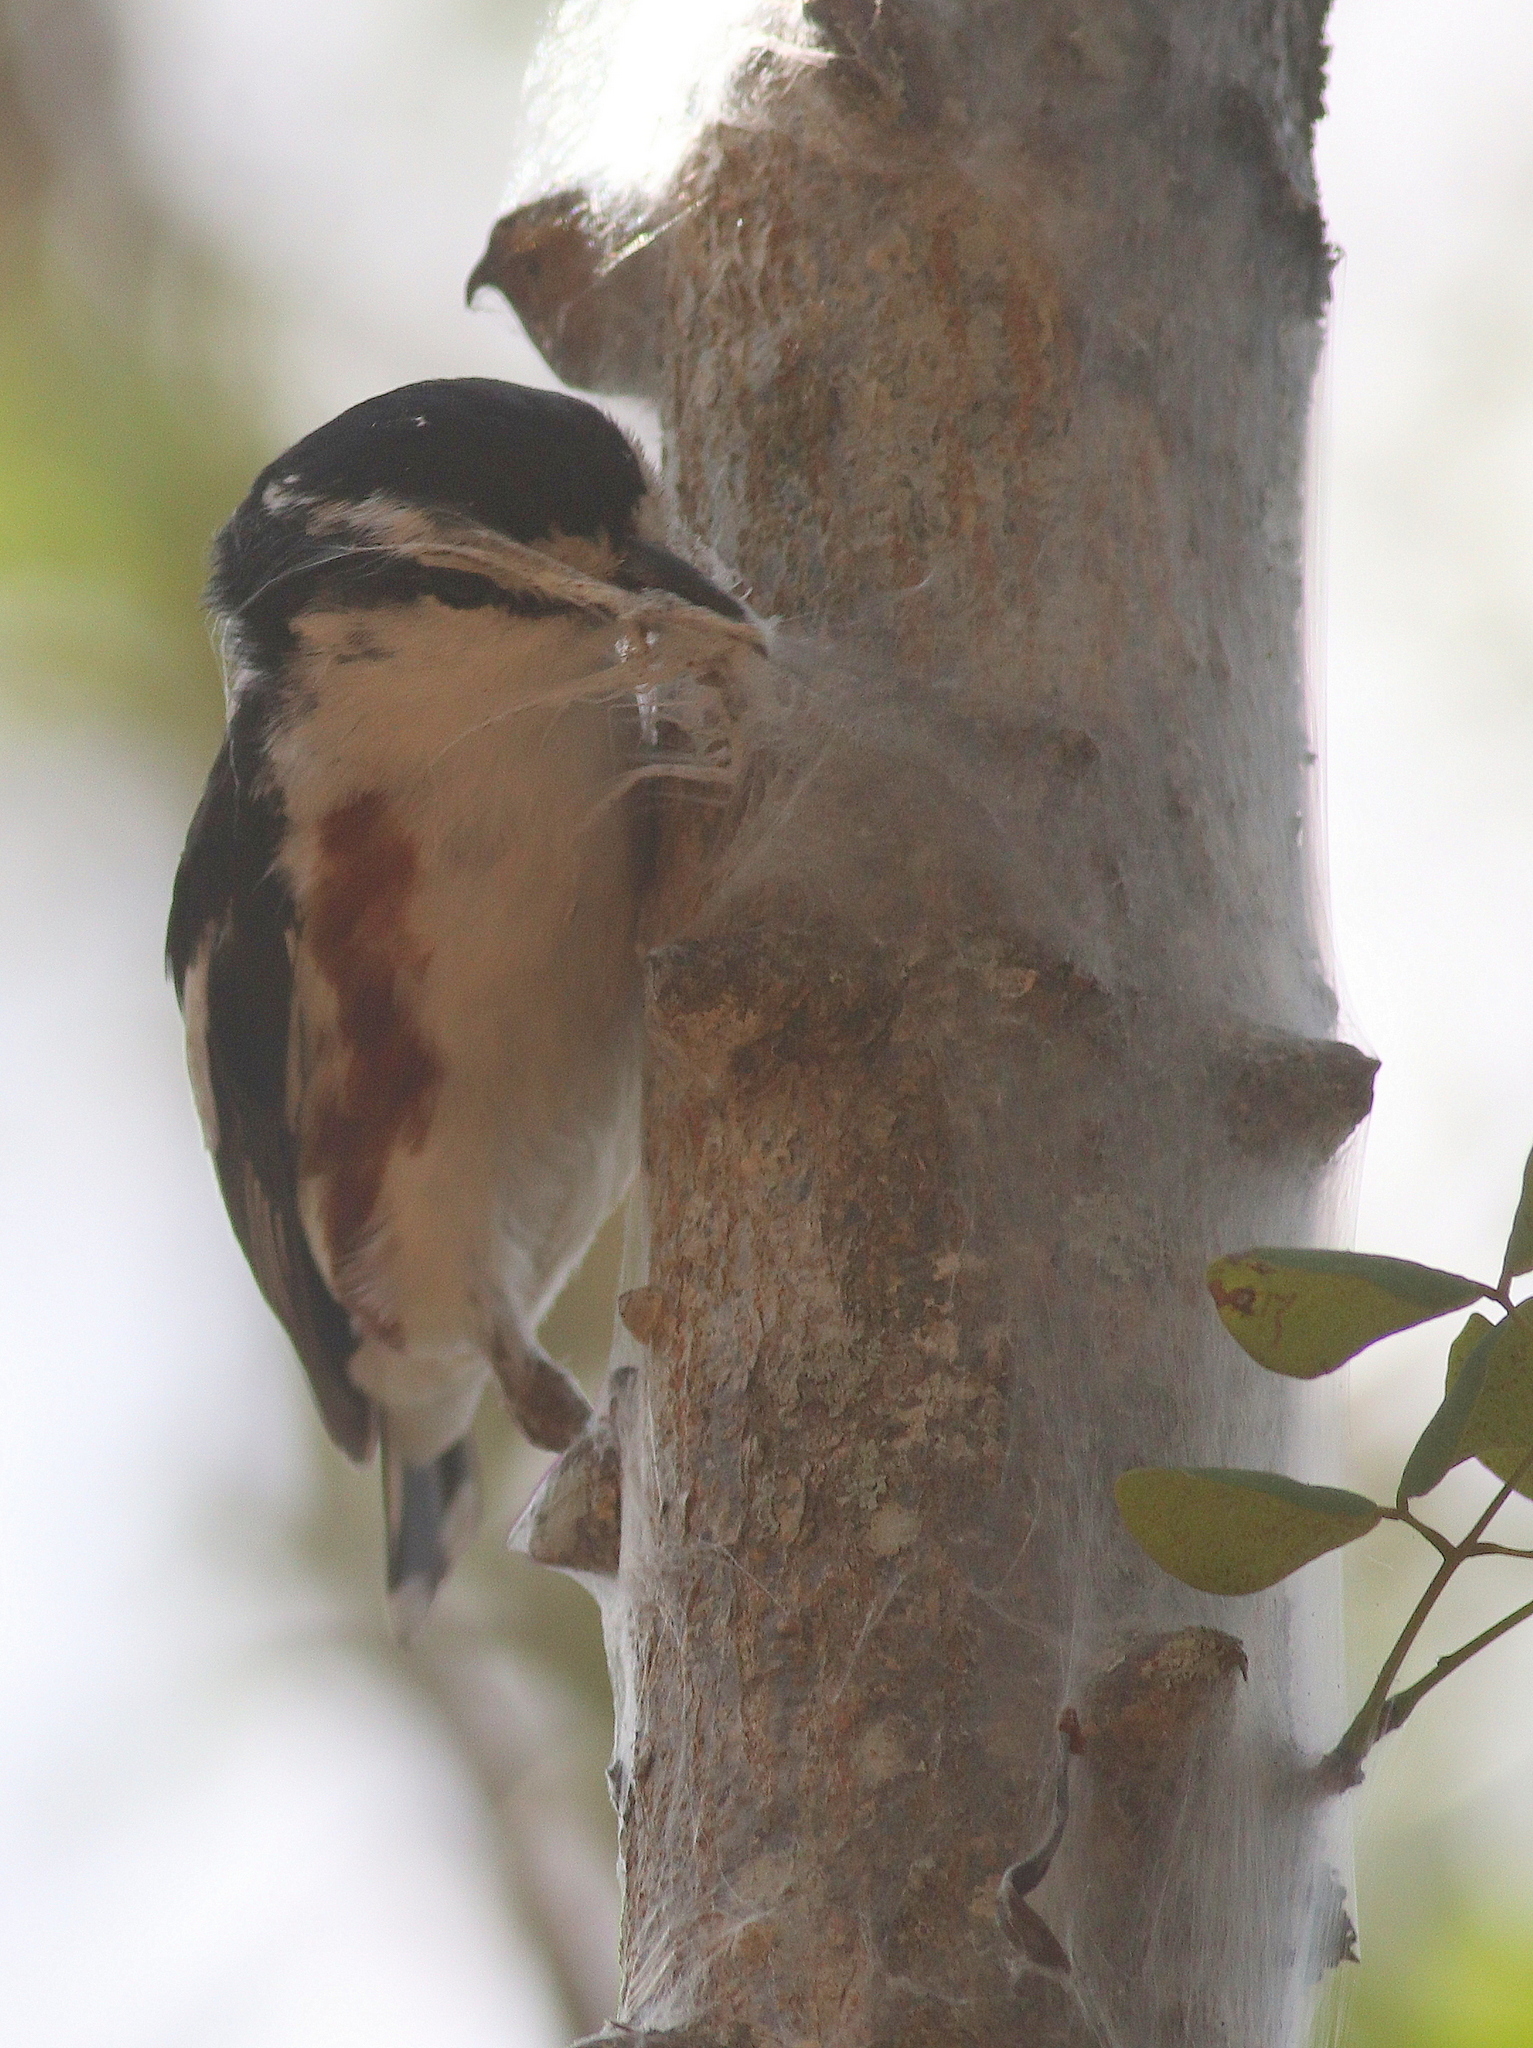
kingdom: Animalia
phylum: Chordata
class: Aves
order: Passeriformes
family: Malaconotidae
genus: Nilaus
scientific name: Nilaus afer
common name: Brubru
